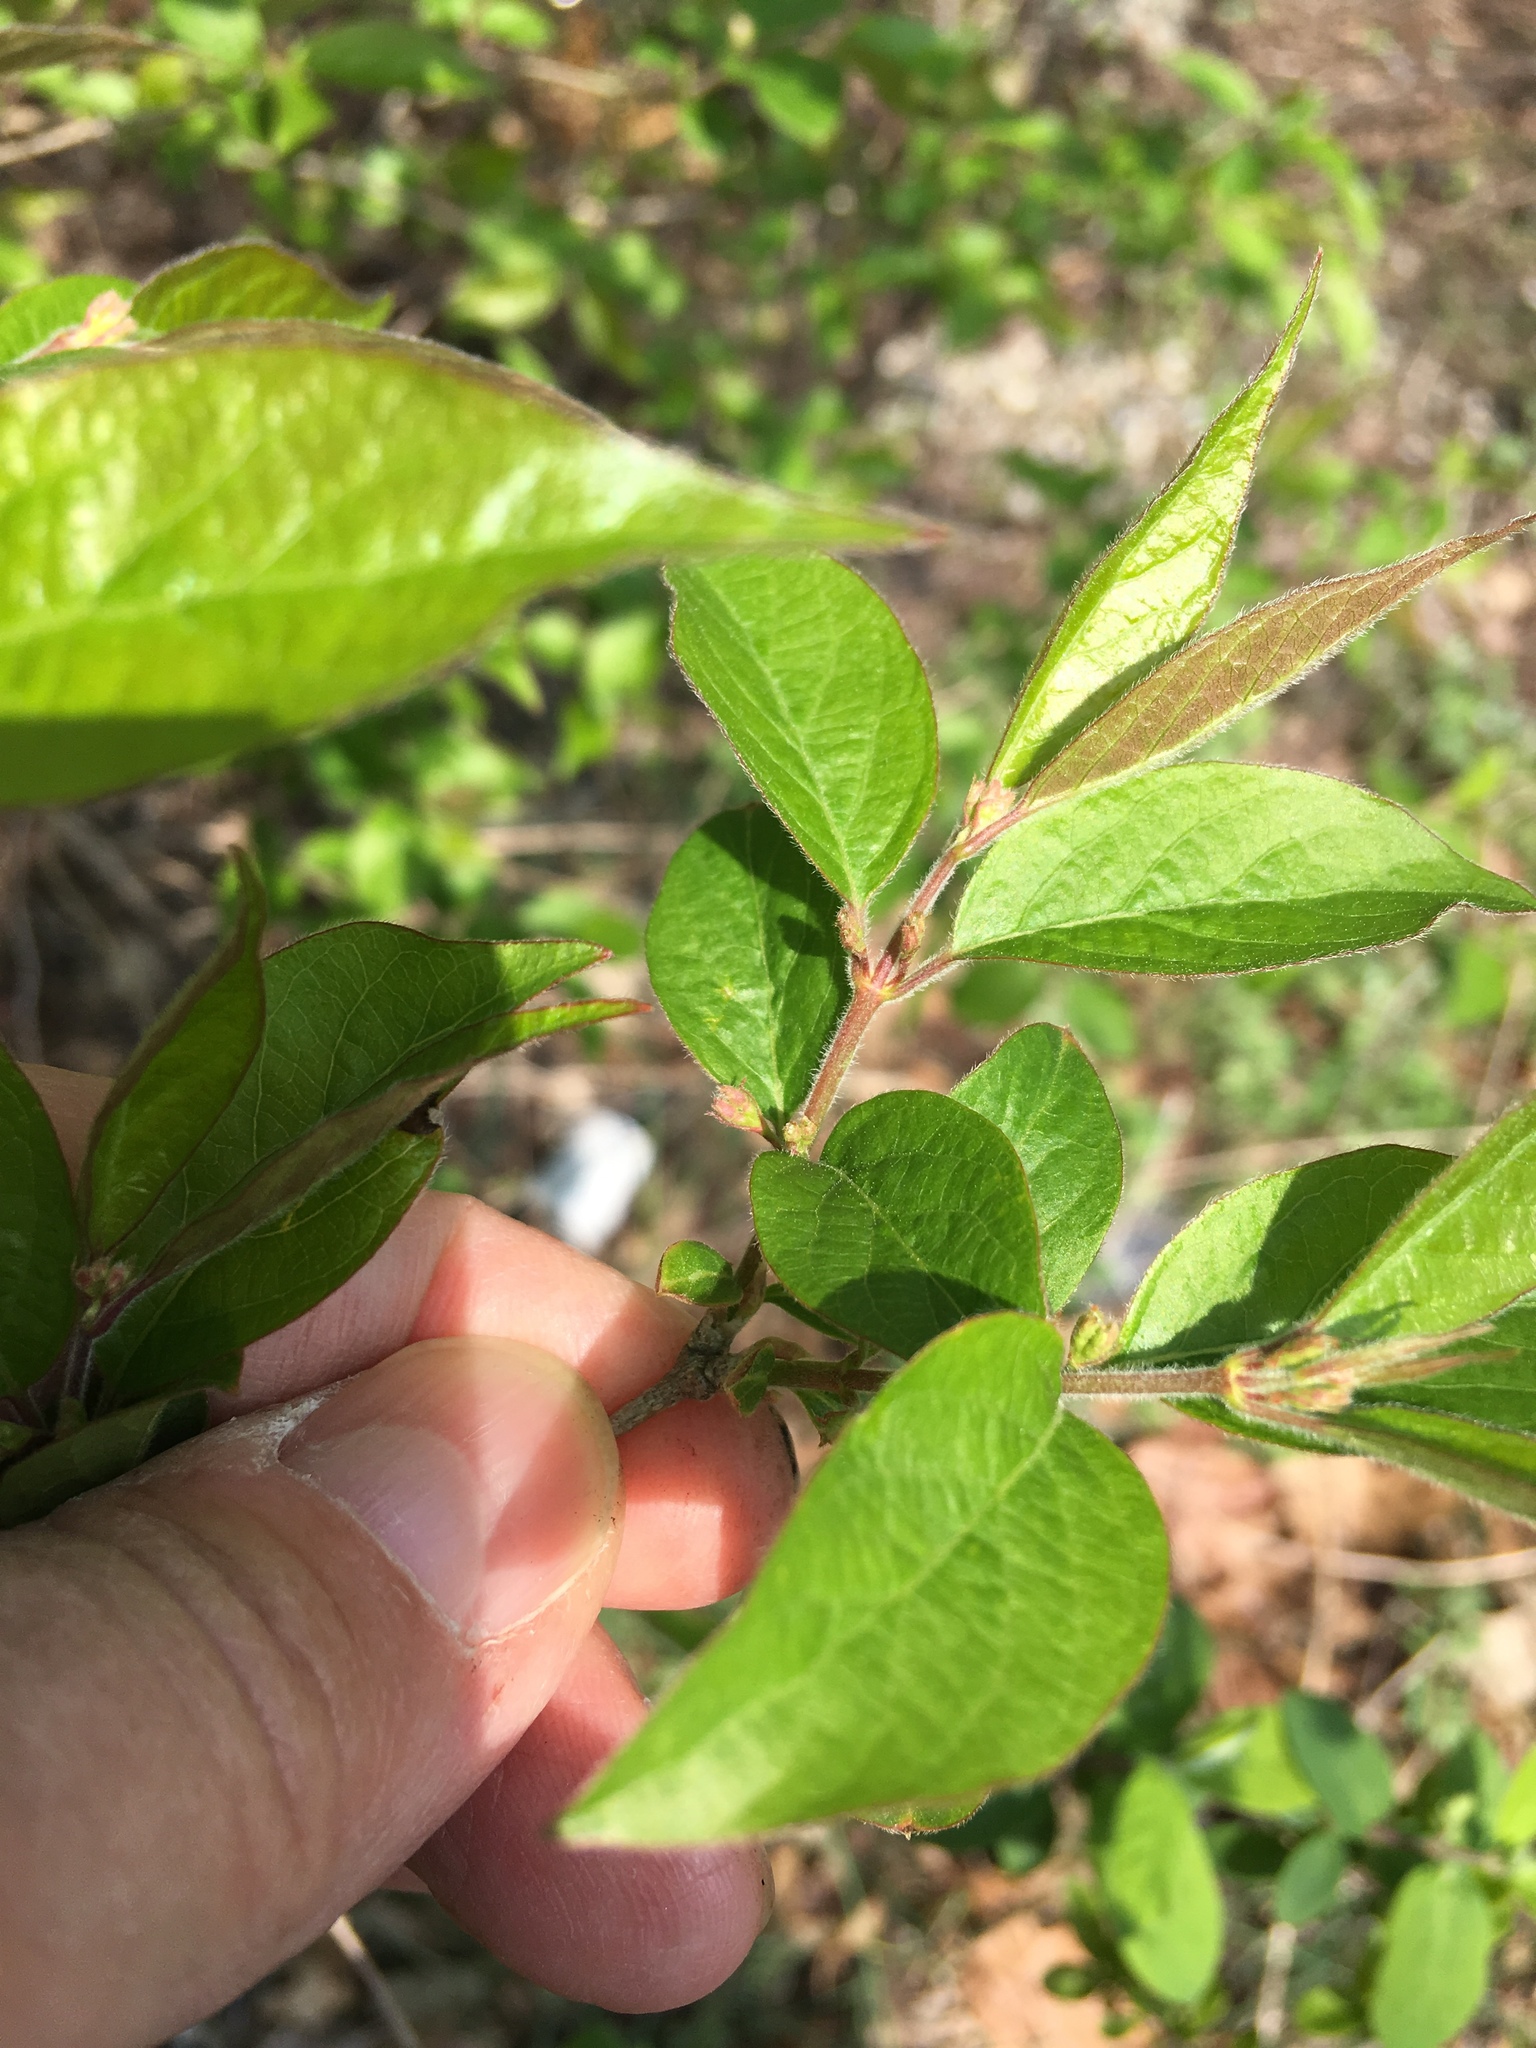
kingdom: Plantae
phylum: Tracheophyta
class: Magnoliopsida
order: Dipsacales
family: Caprifoliaceae
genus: Lonicera
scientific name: Lonicera maackii
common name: Amur honeysuckle
